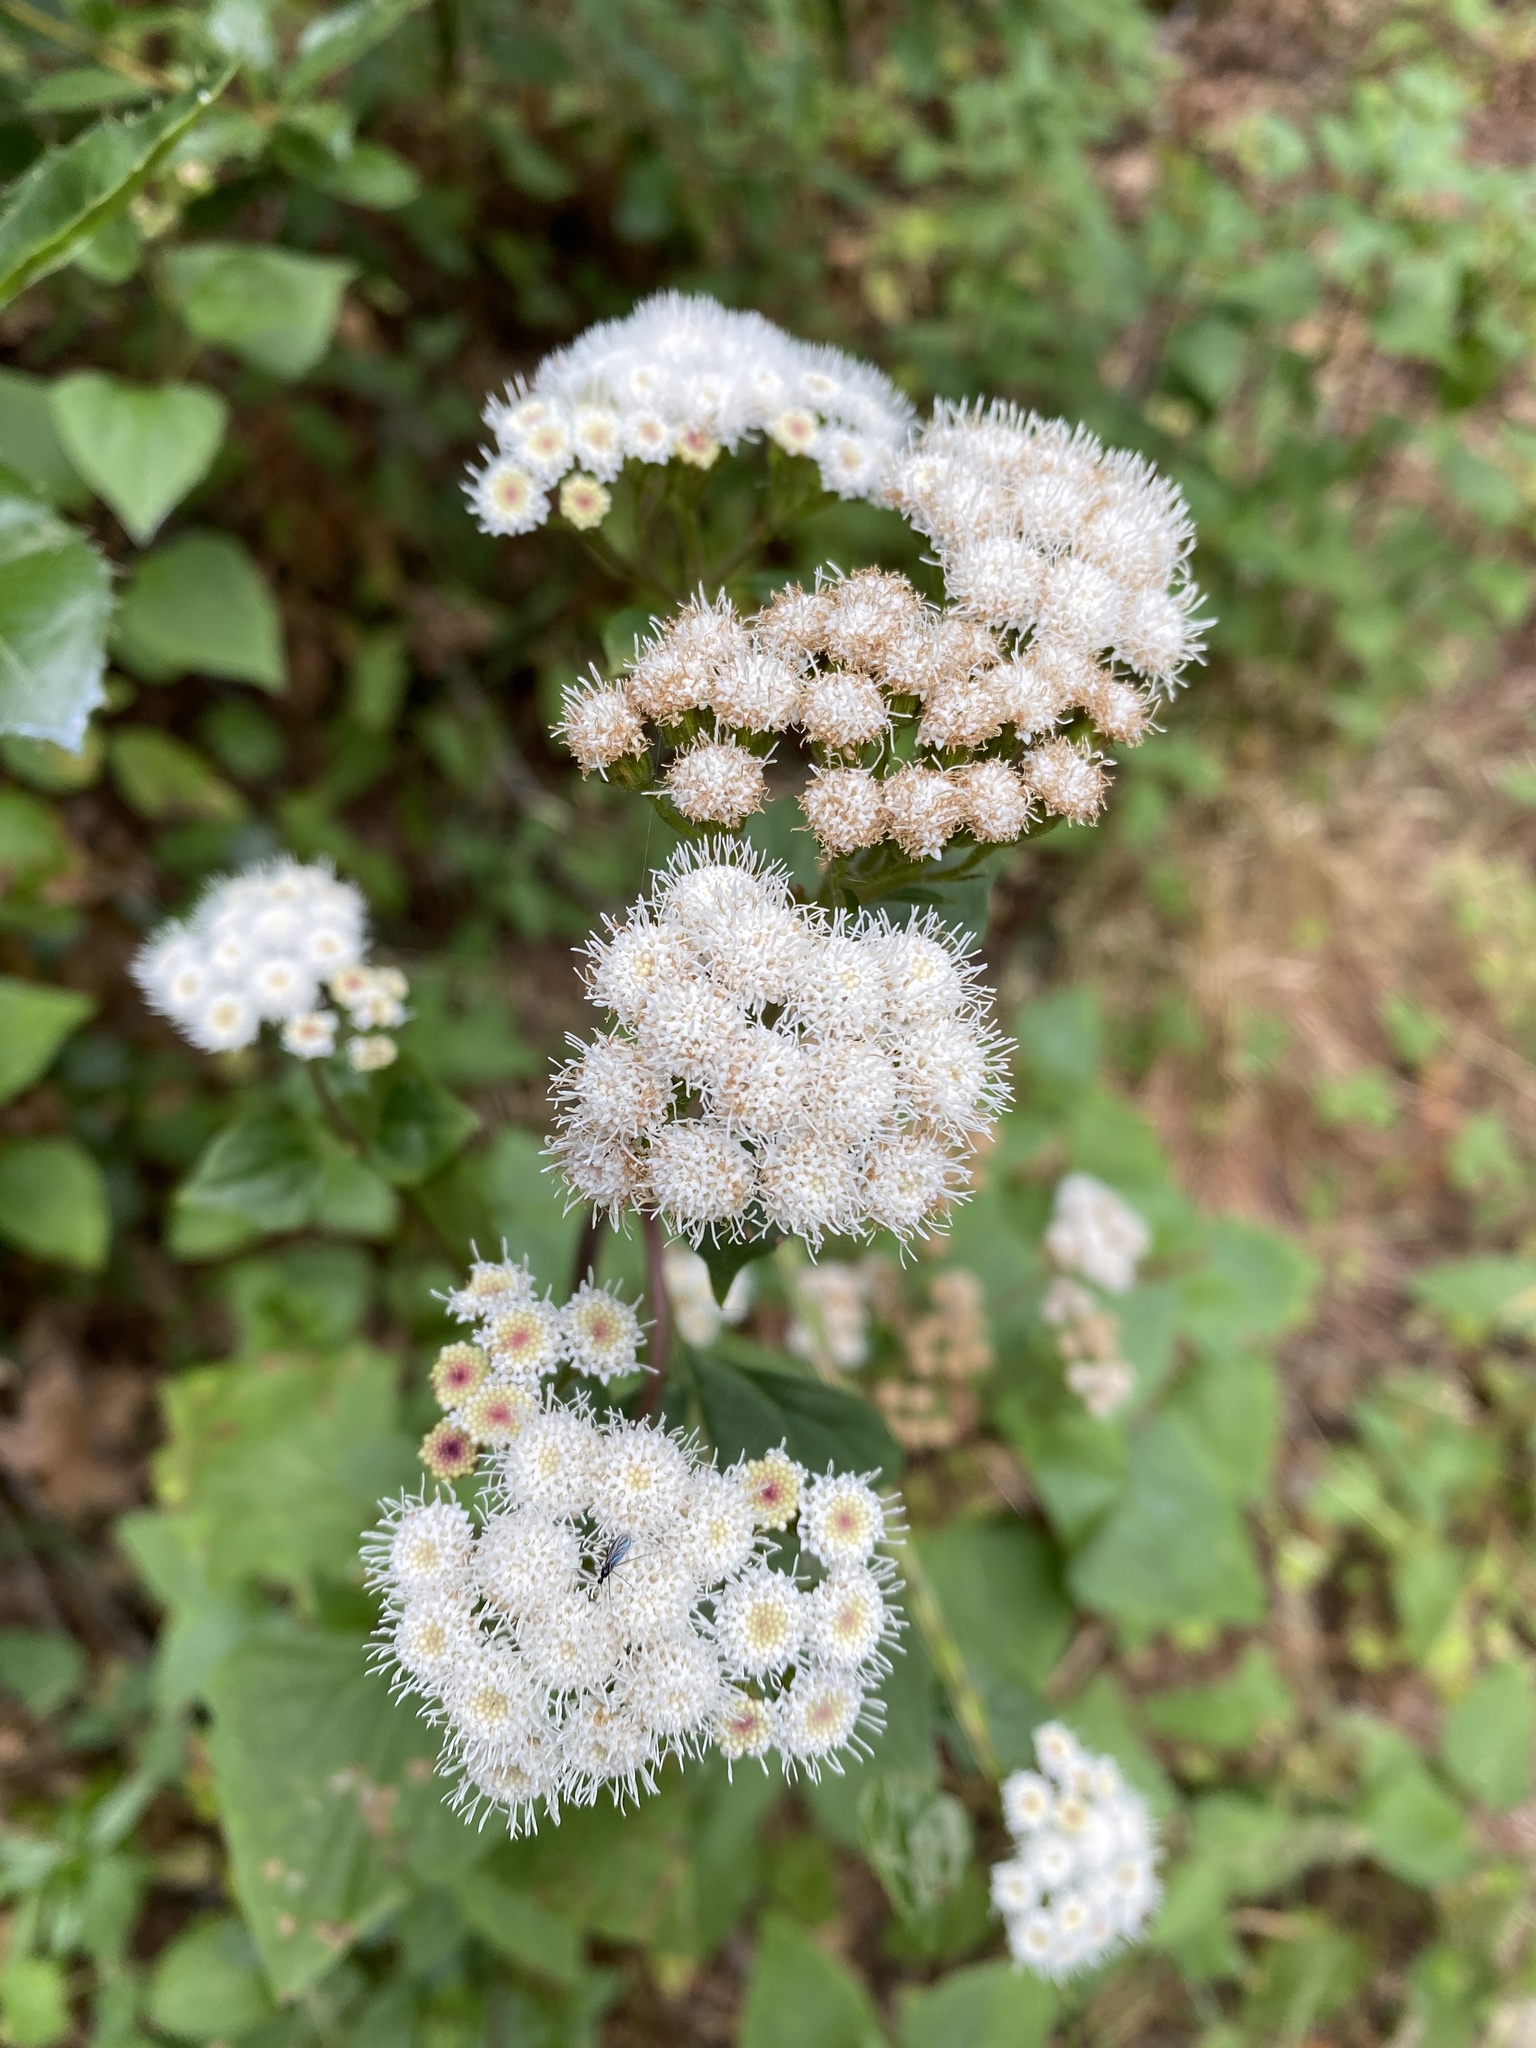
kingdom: Plantae
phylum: Tracheophyta
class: Magnoliopsida
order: Asterales
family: Asteraceae
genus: Ageratina
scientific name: Ageratina adenophora
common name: Sticky snakeroot
